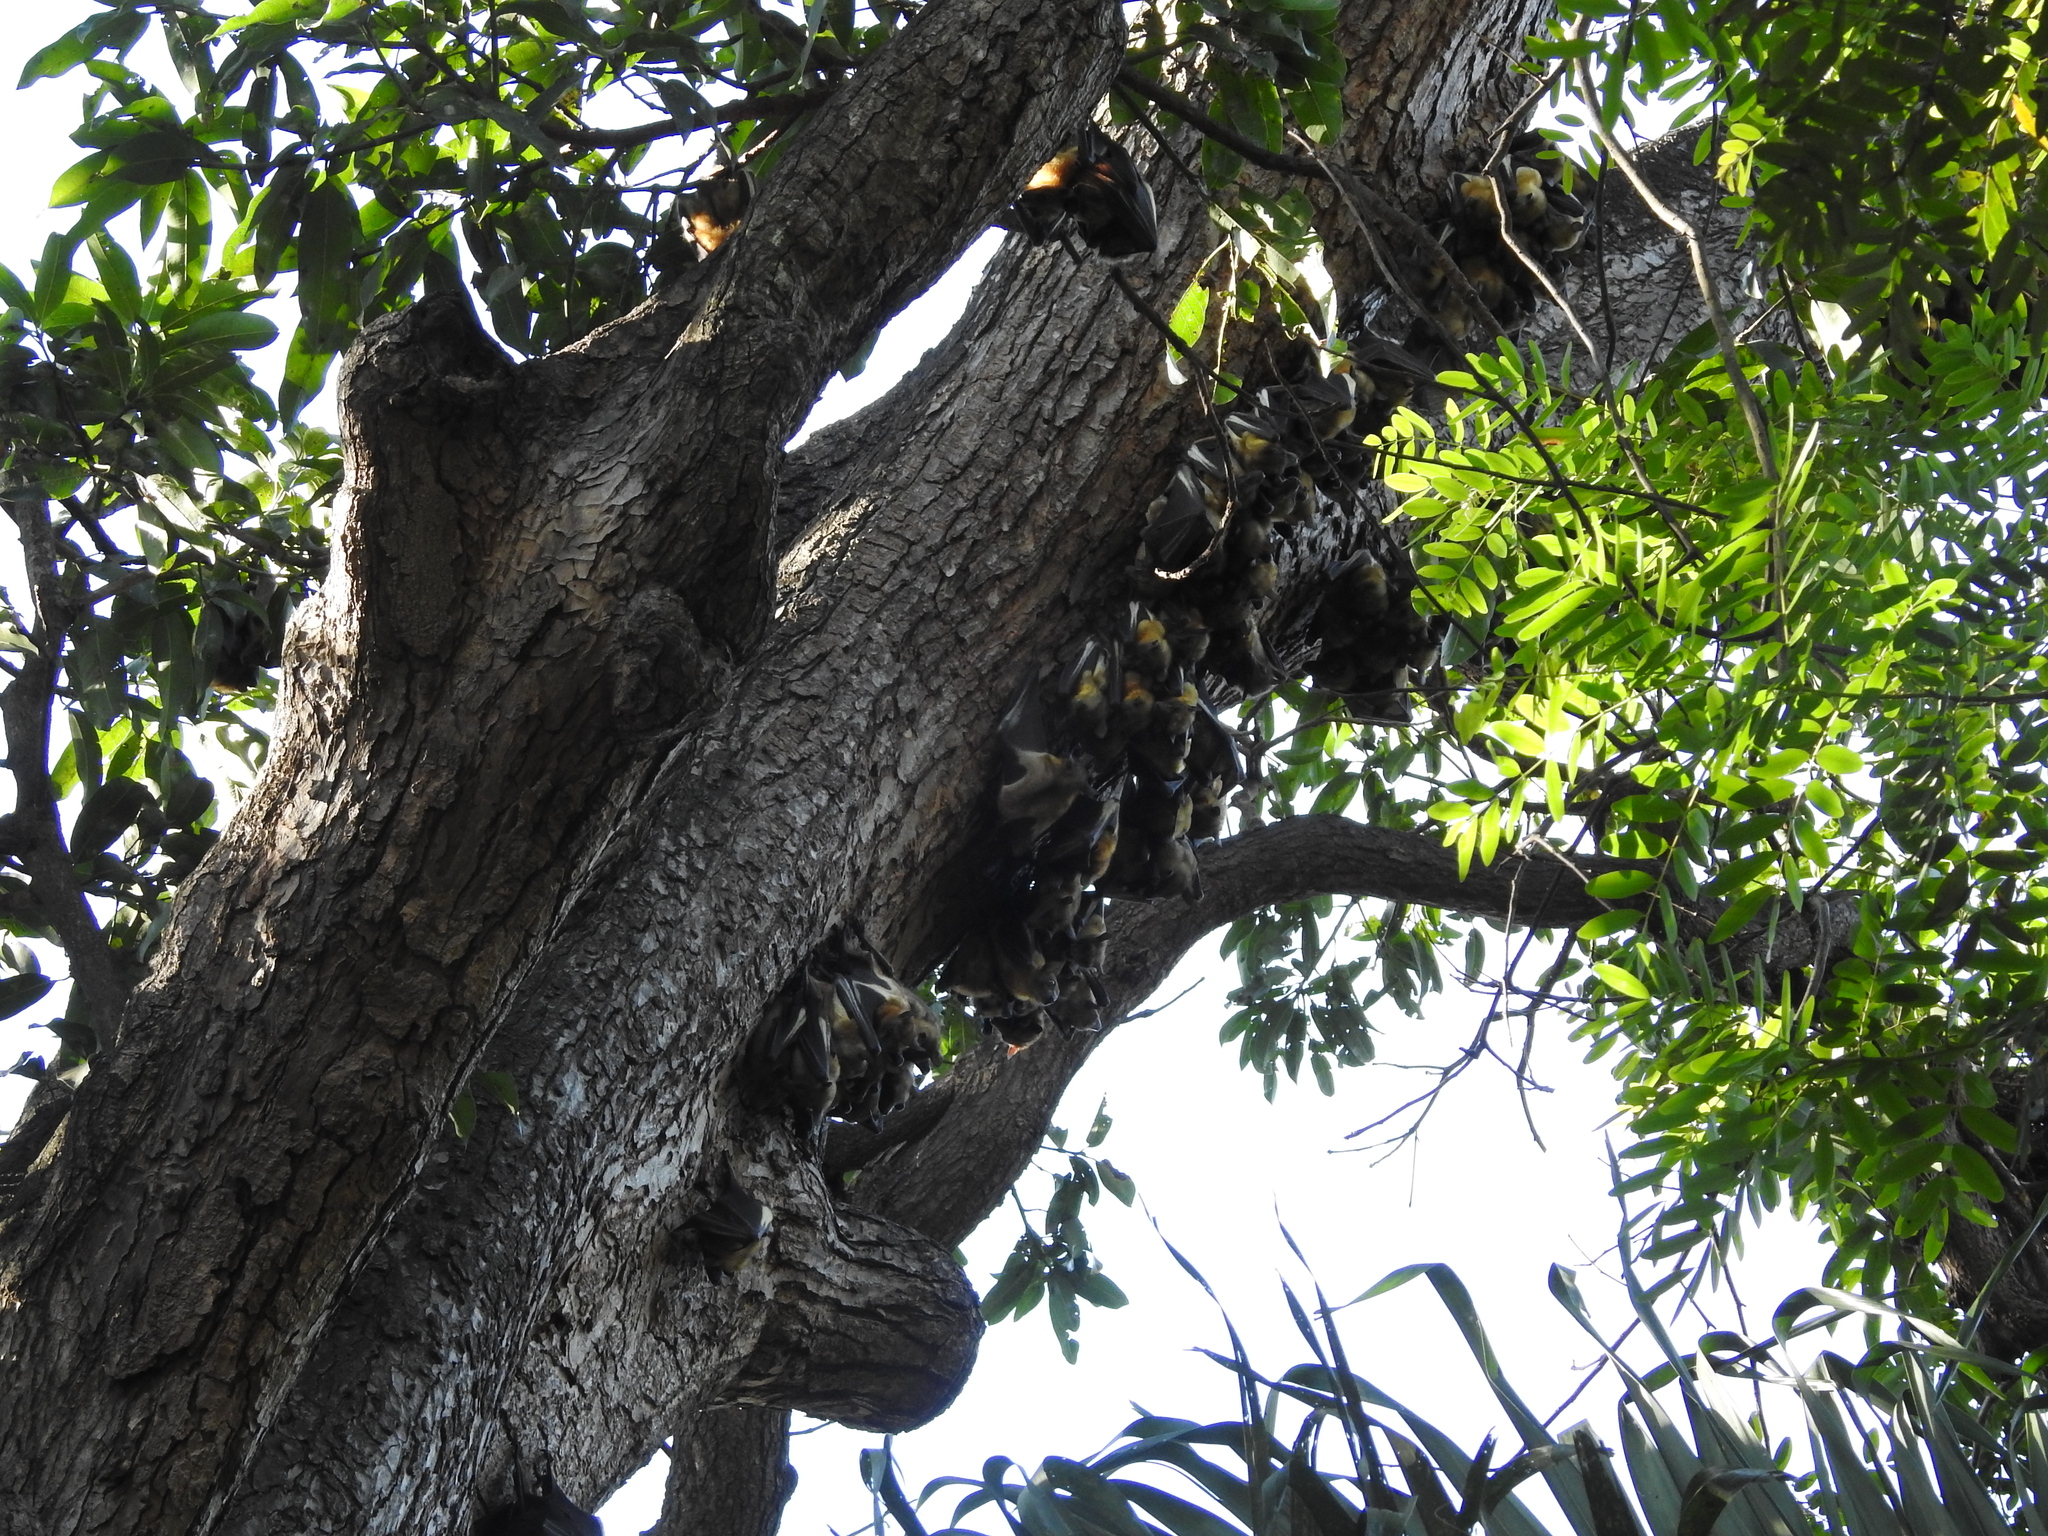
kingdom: Animalia
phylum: Chordata
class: Mammalia
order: Chiroptera
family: Pteropodidae
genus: Eidolon
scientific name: Eidolon helvum
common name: Straw-colored fruit bat
